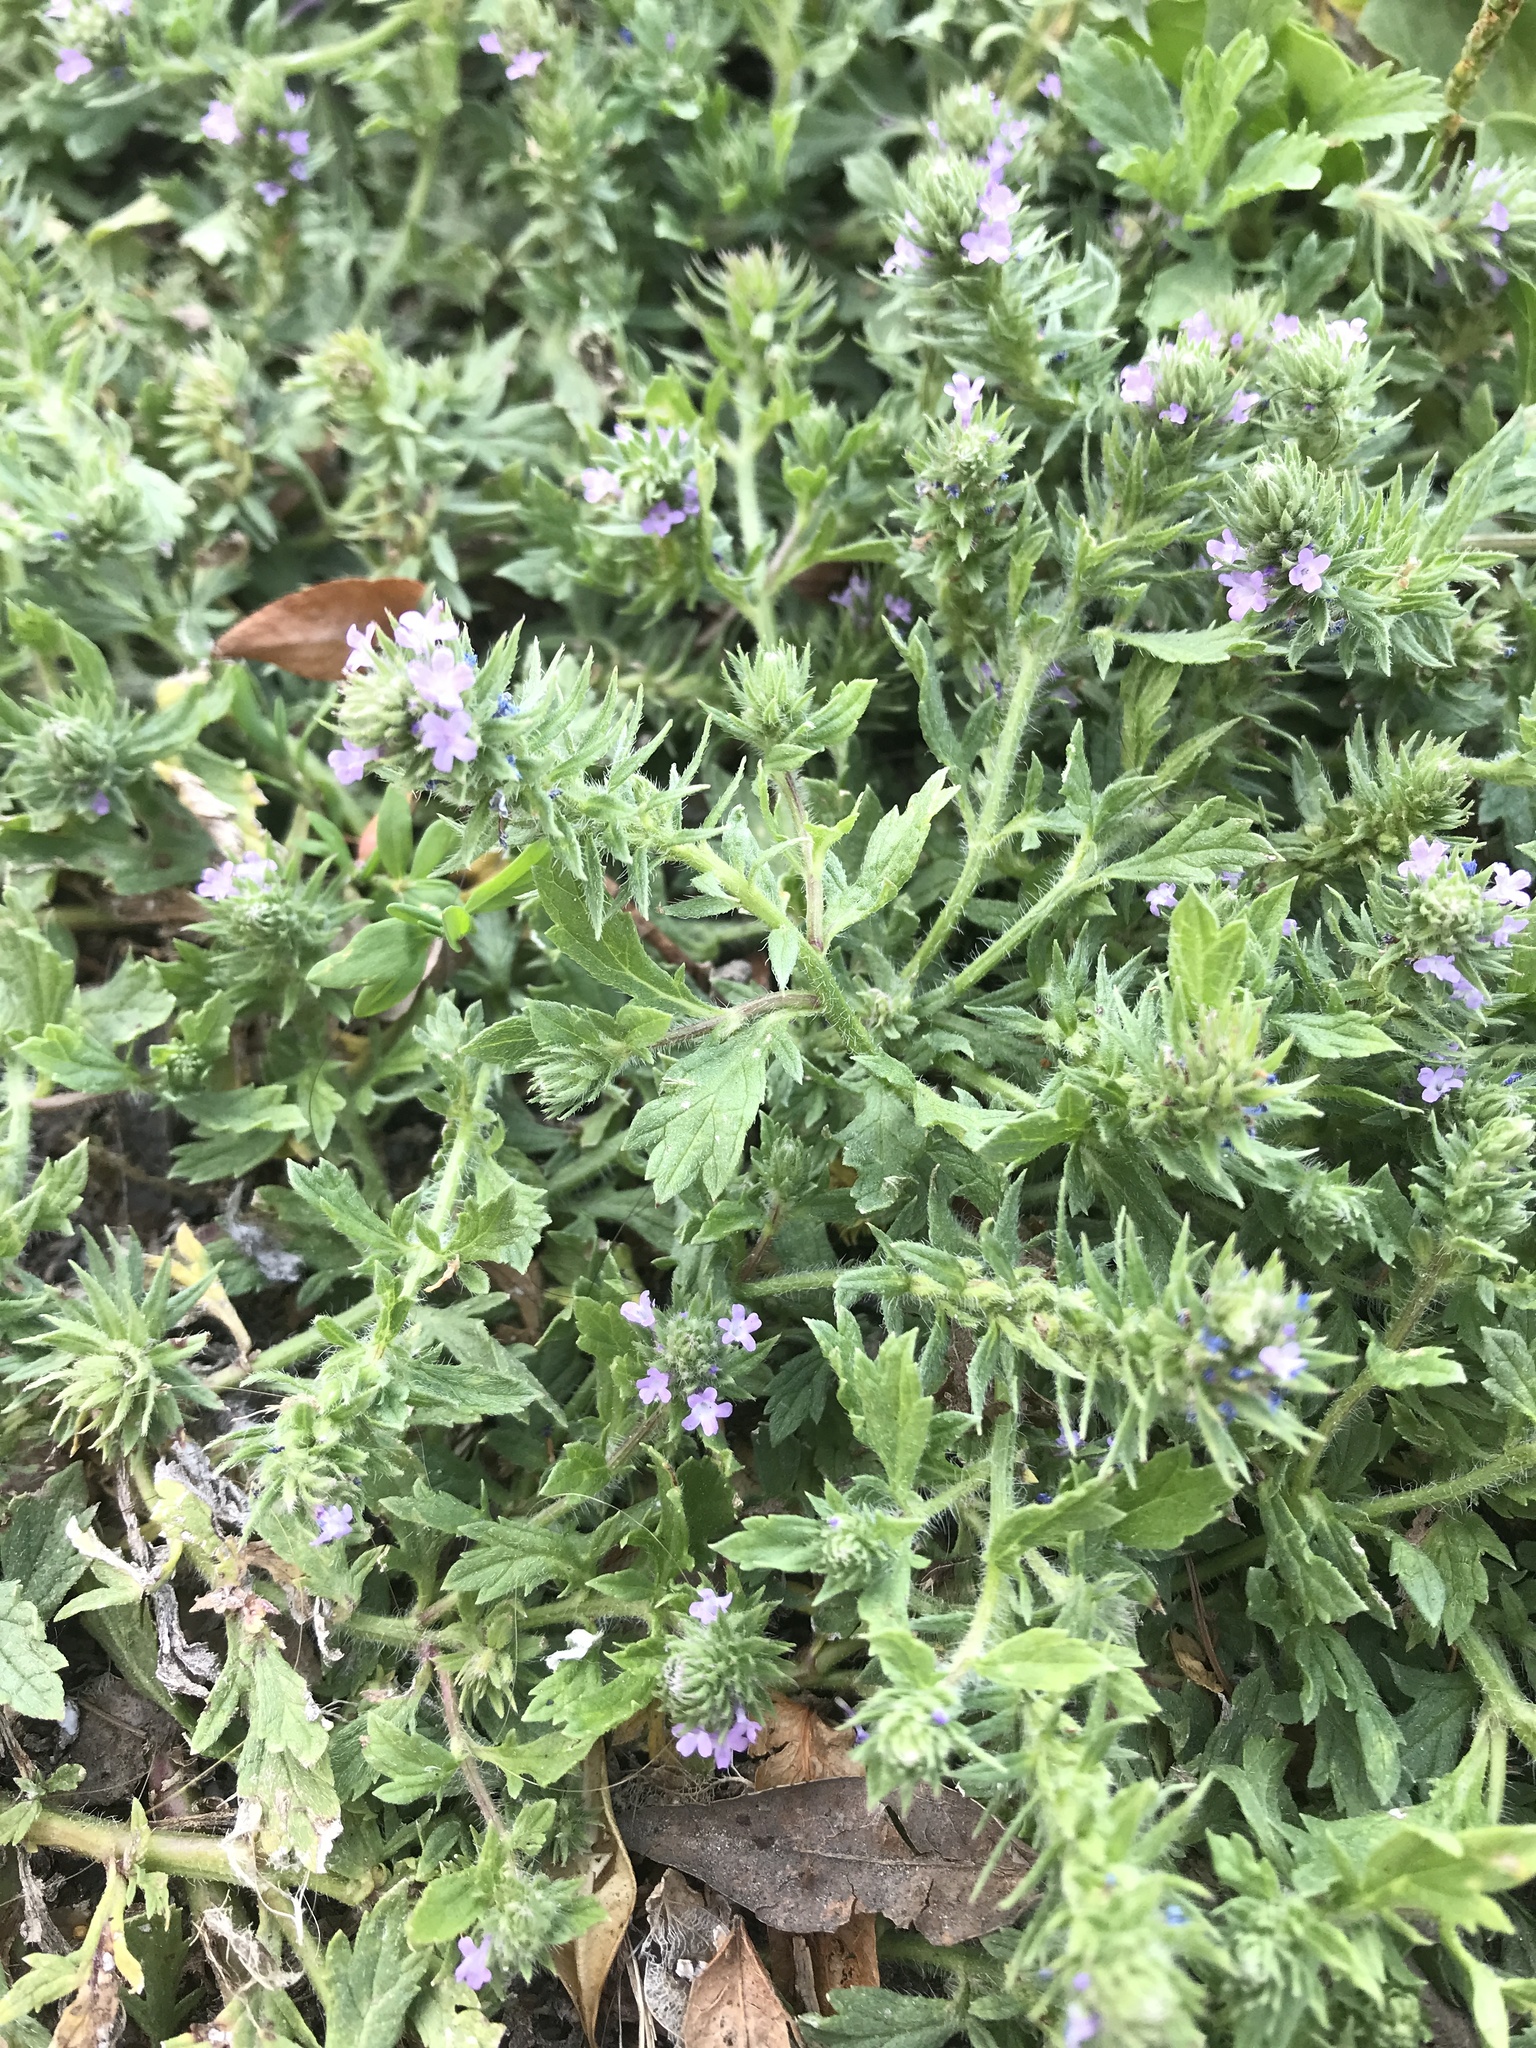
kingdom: Plantae
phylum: Tracheophyta
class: Magnoliopsida
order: Lamiales
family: Verbenaceae
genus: Verbena
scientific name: Verbena bracteata
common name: Bracted vervain
